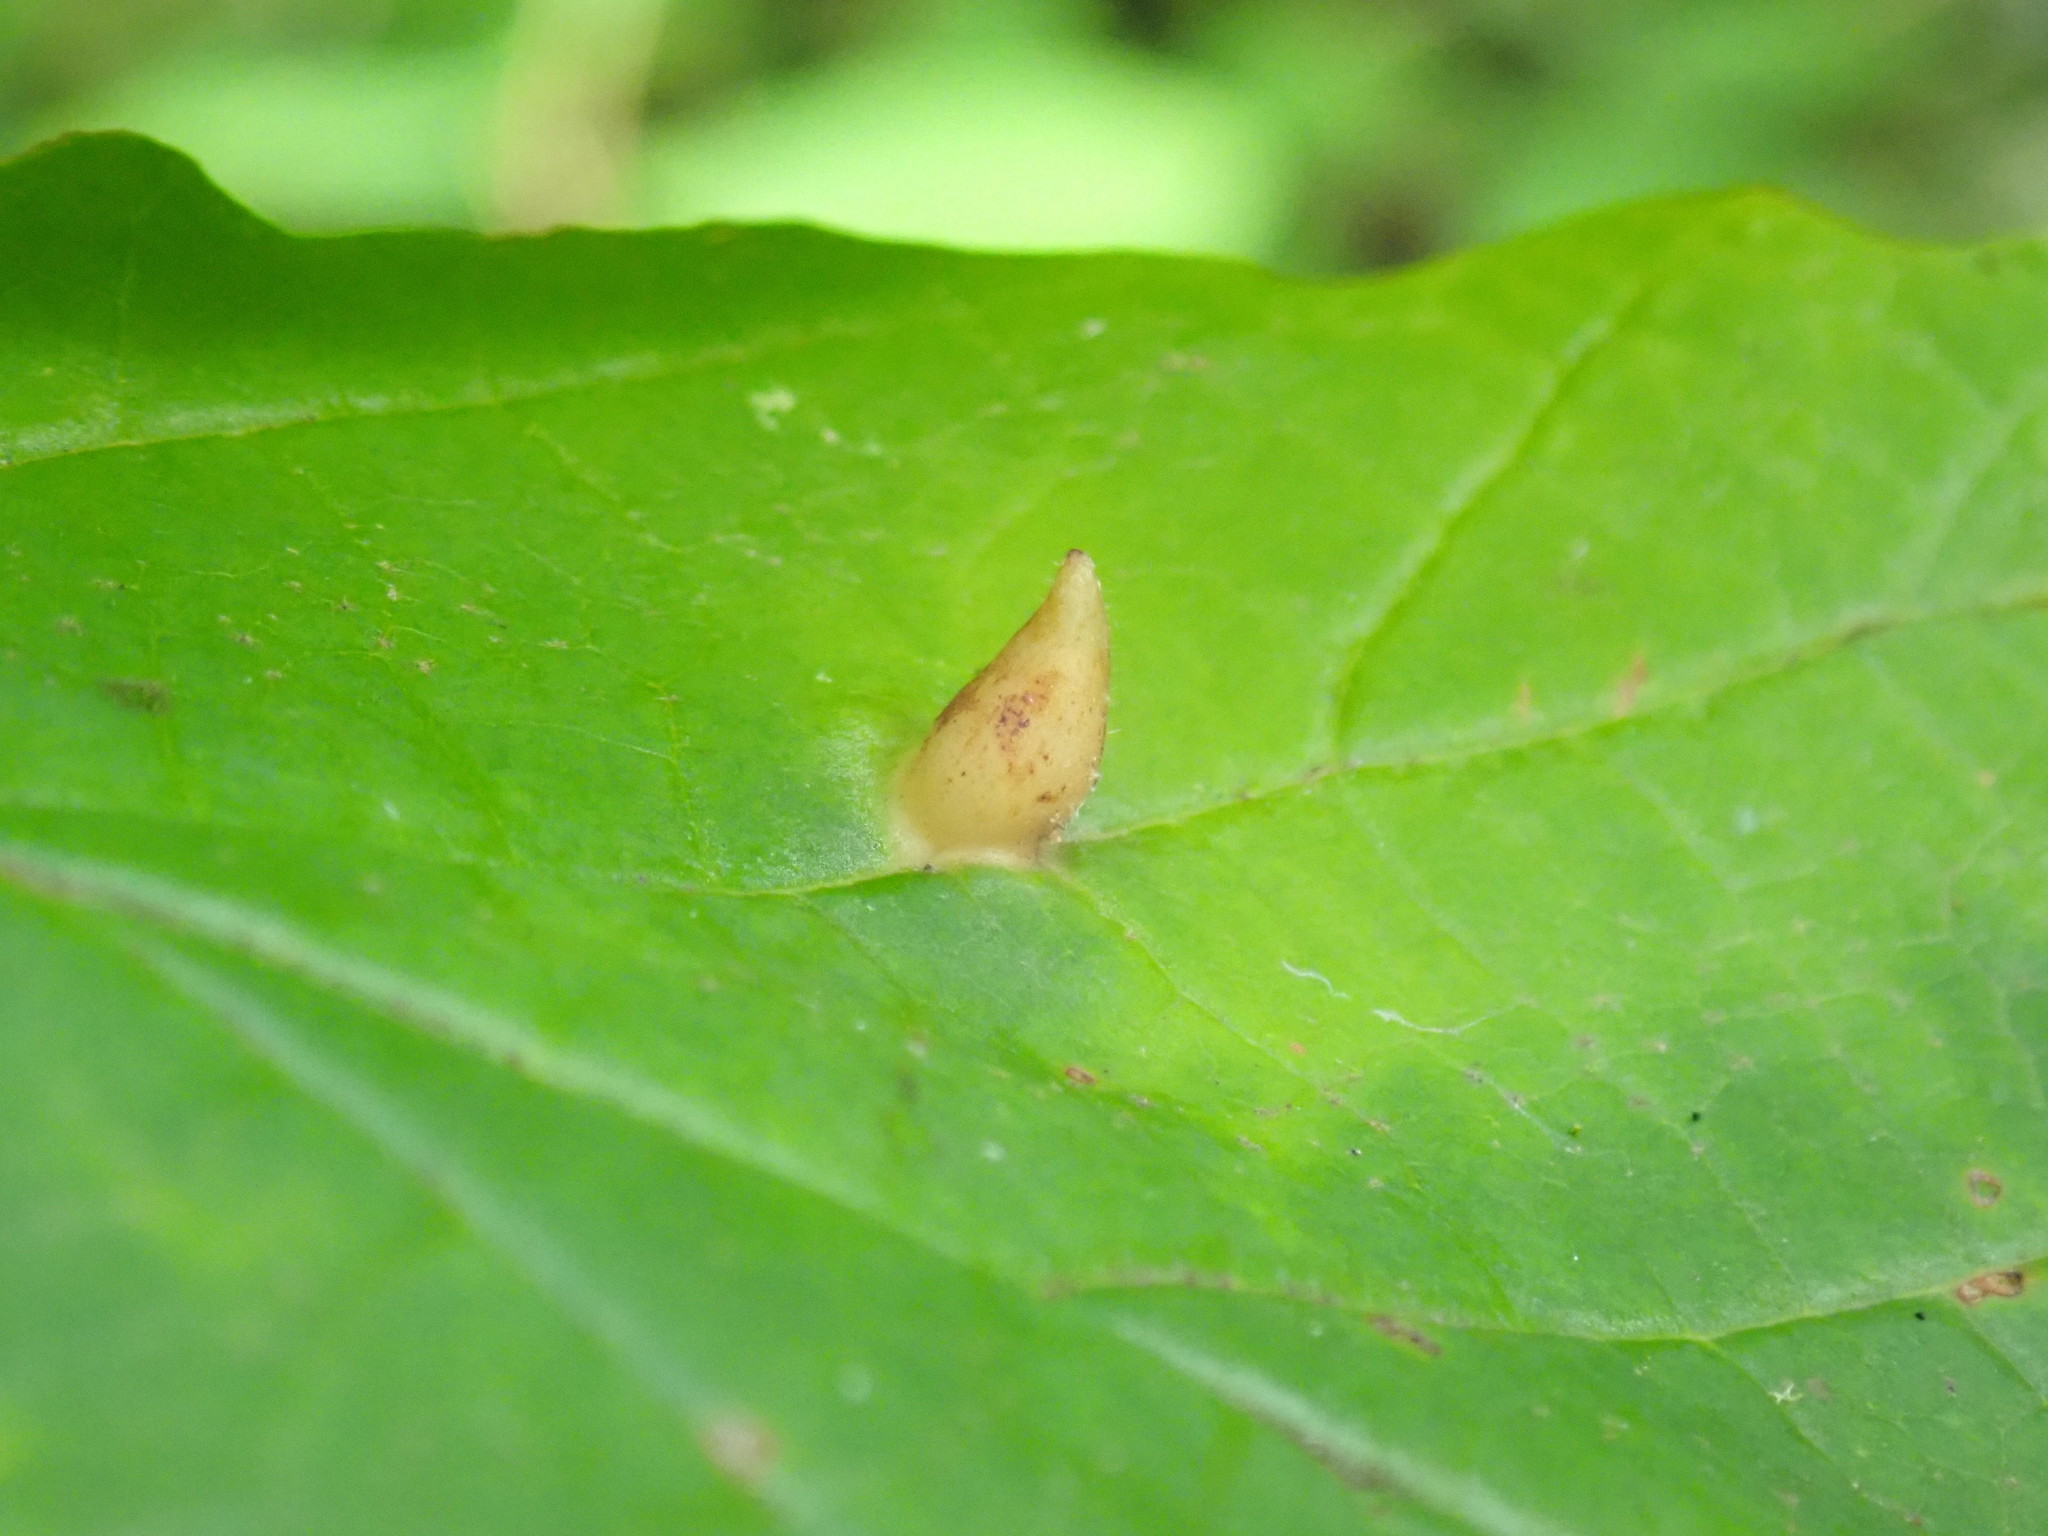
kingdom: Animalia
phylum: Arthropoda
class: Insecta
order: Hemiptera
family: Aphididae
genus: Hormaphis
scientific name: Hormaphis hamamelidis
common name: Witch-hazel cone gall aphid
